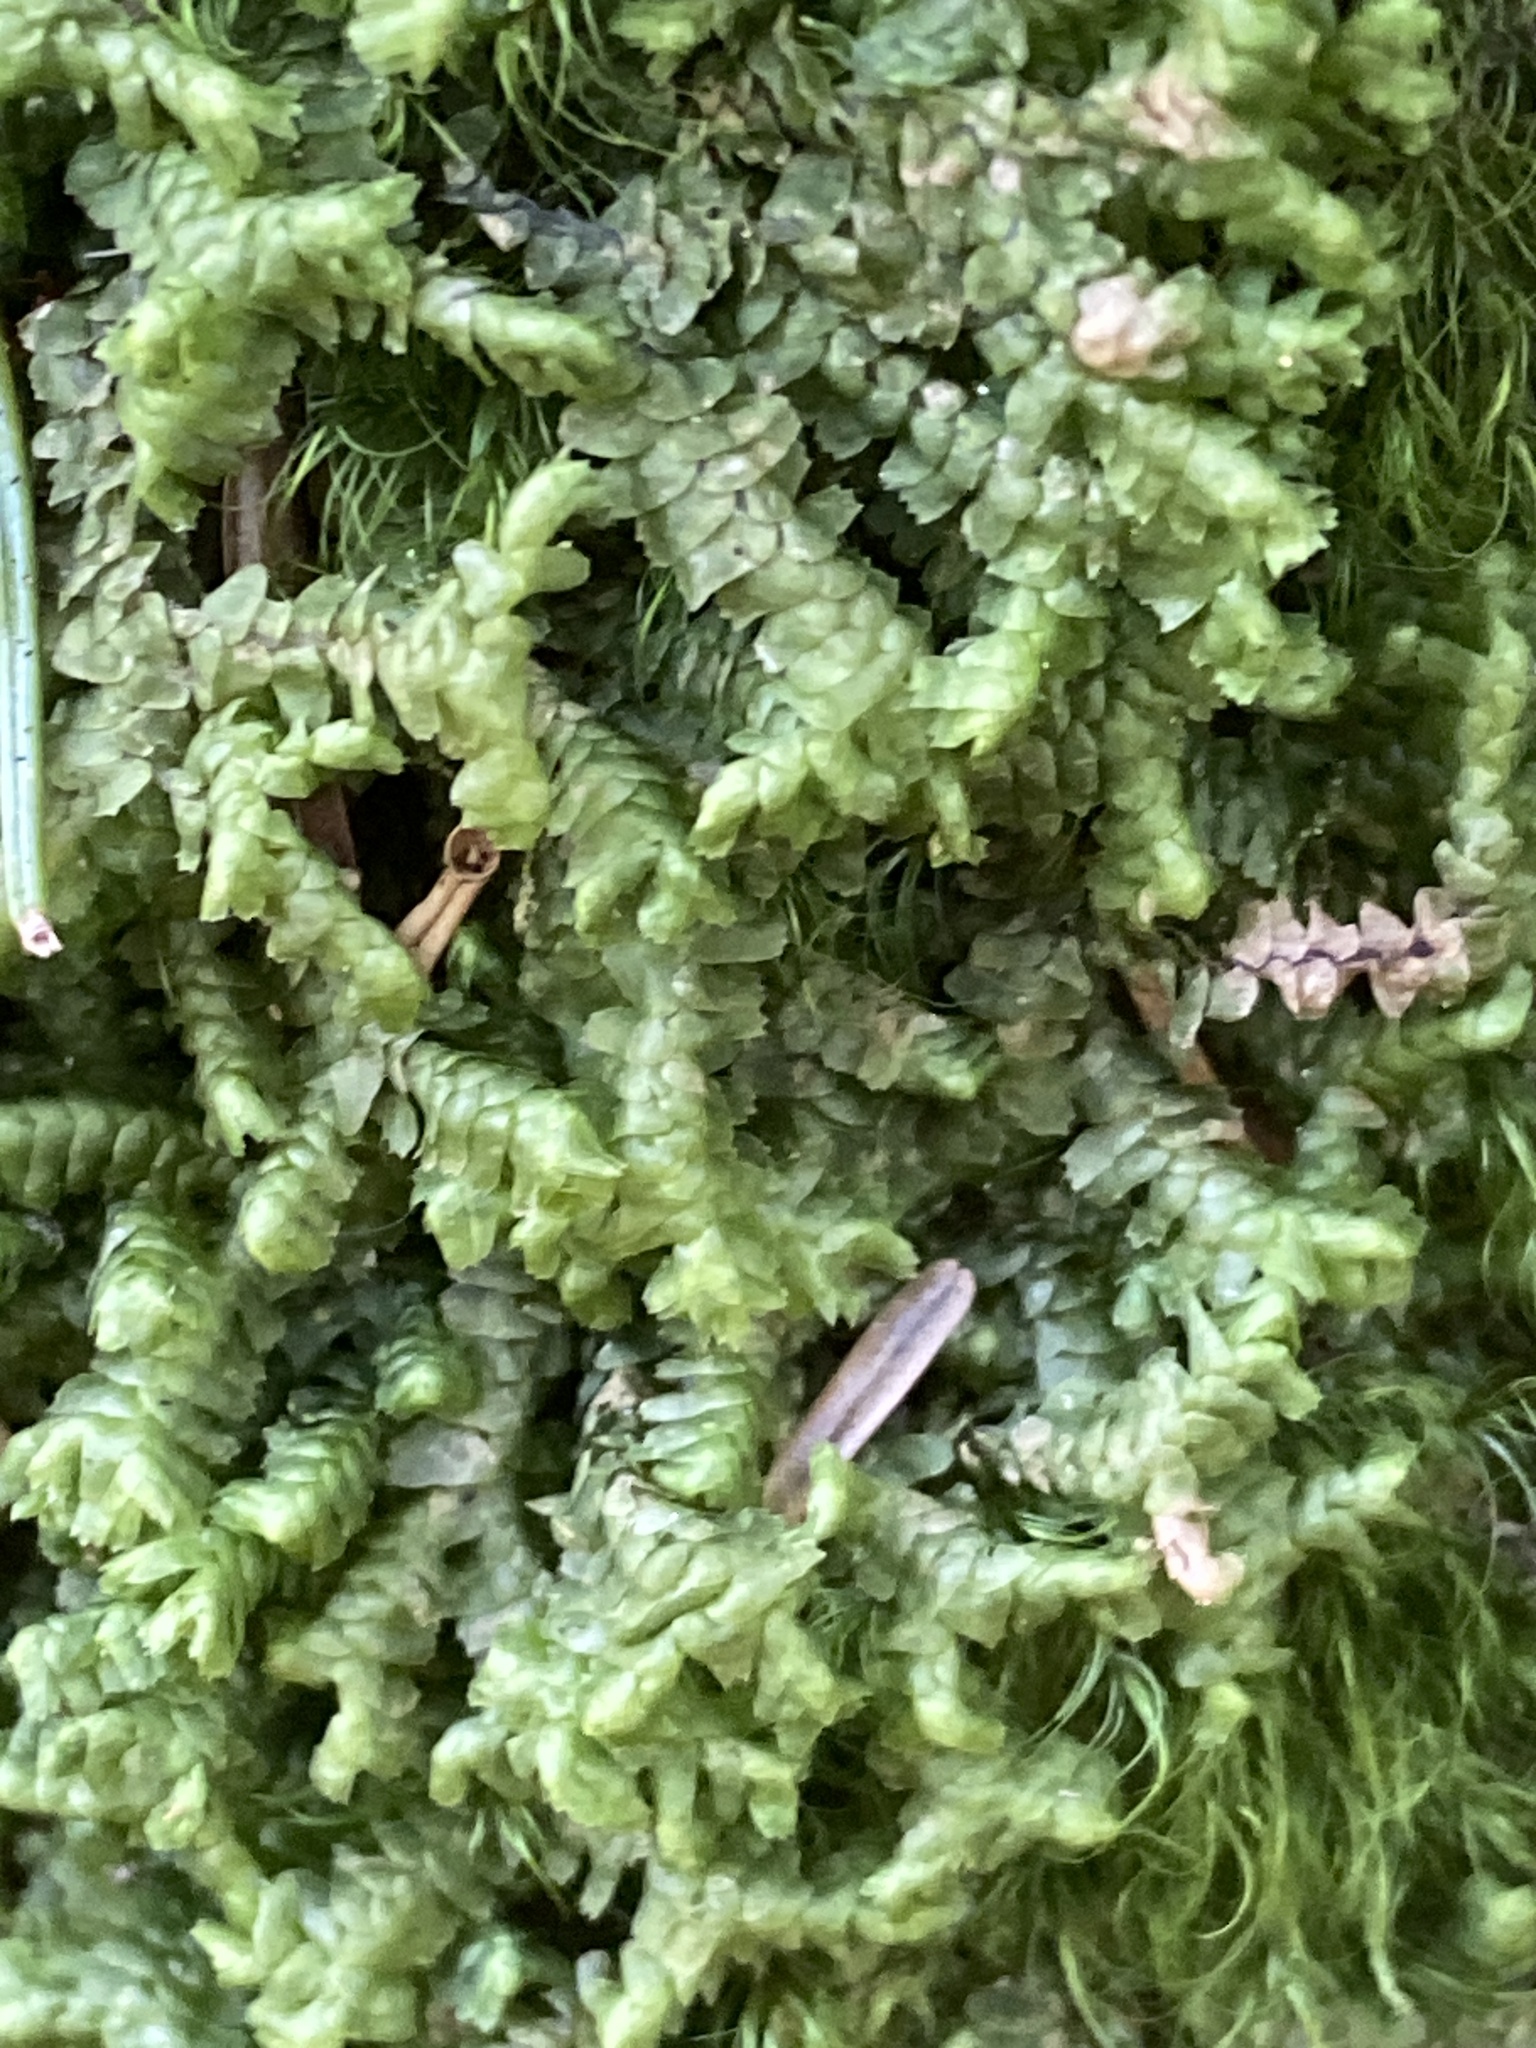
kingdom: Plantae
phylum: Marchantiophyta
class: Jungermanniopsida
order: Jungermanniales
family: Lepidoziaceae
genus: Bazzania
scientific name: Bazzania trilobata
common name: Three-lobed whipwort
